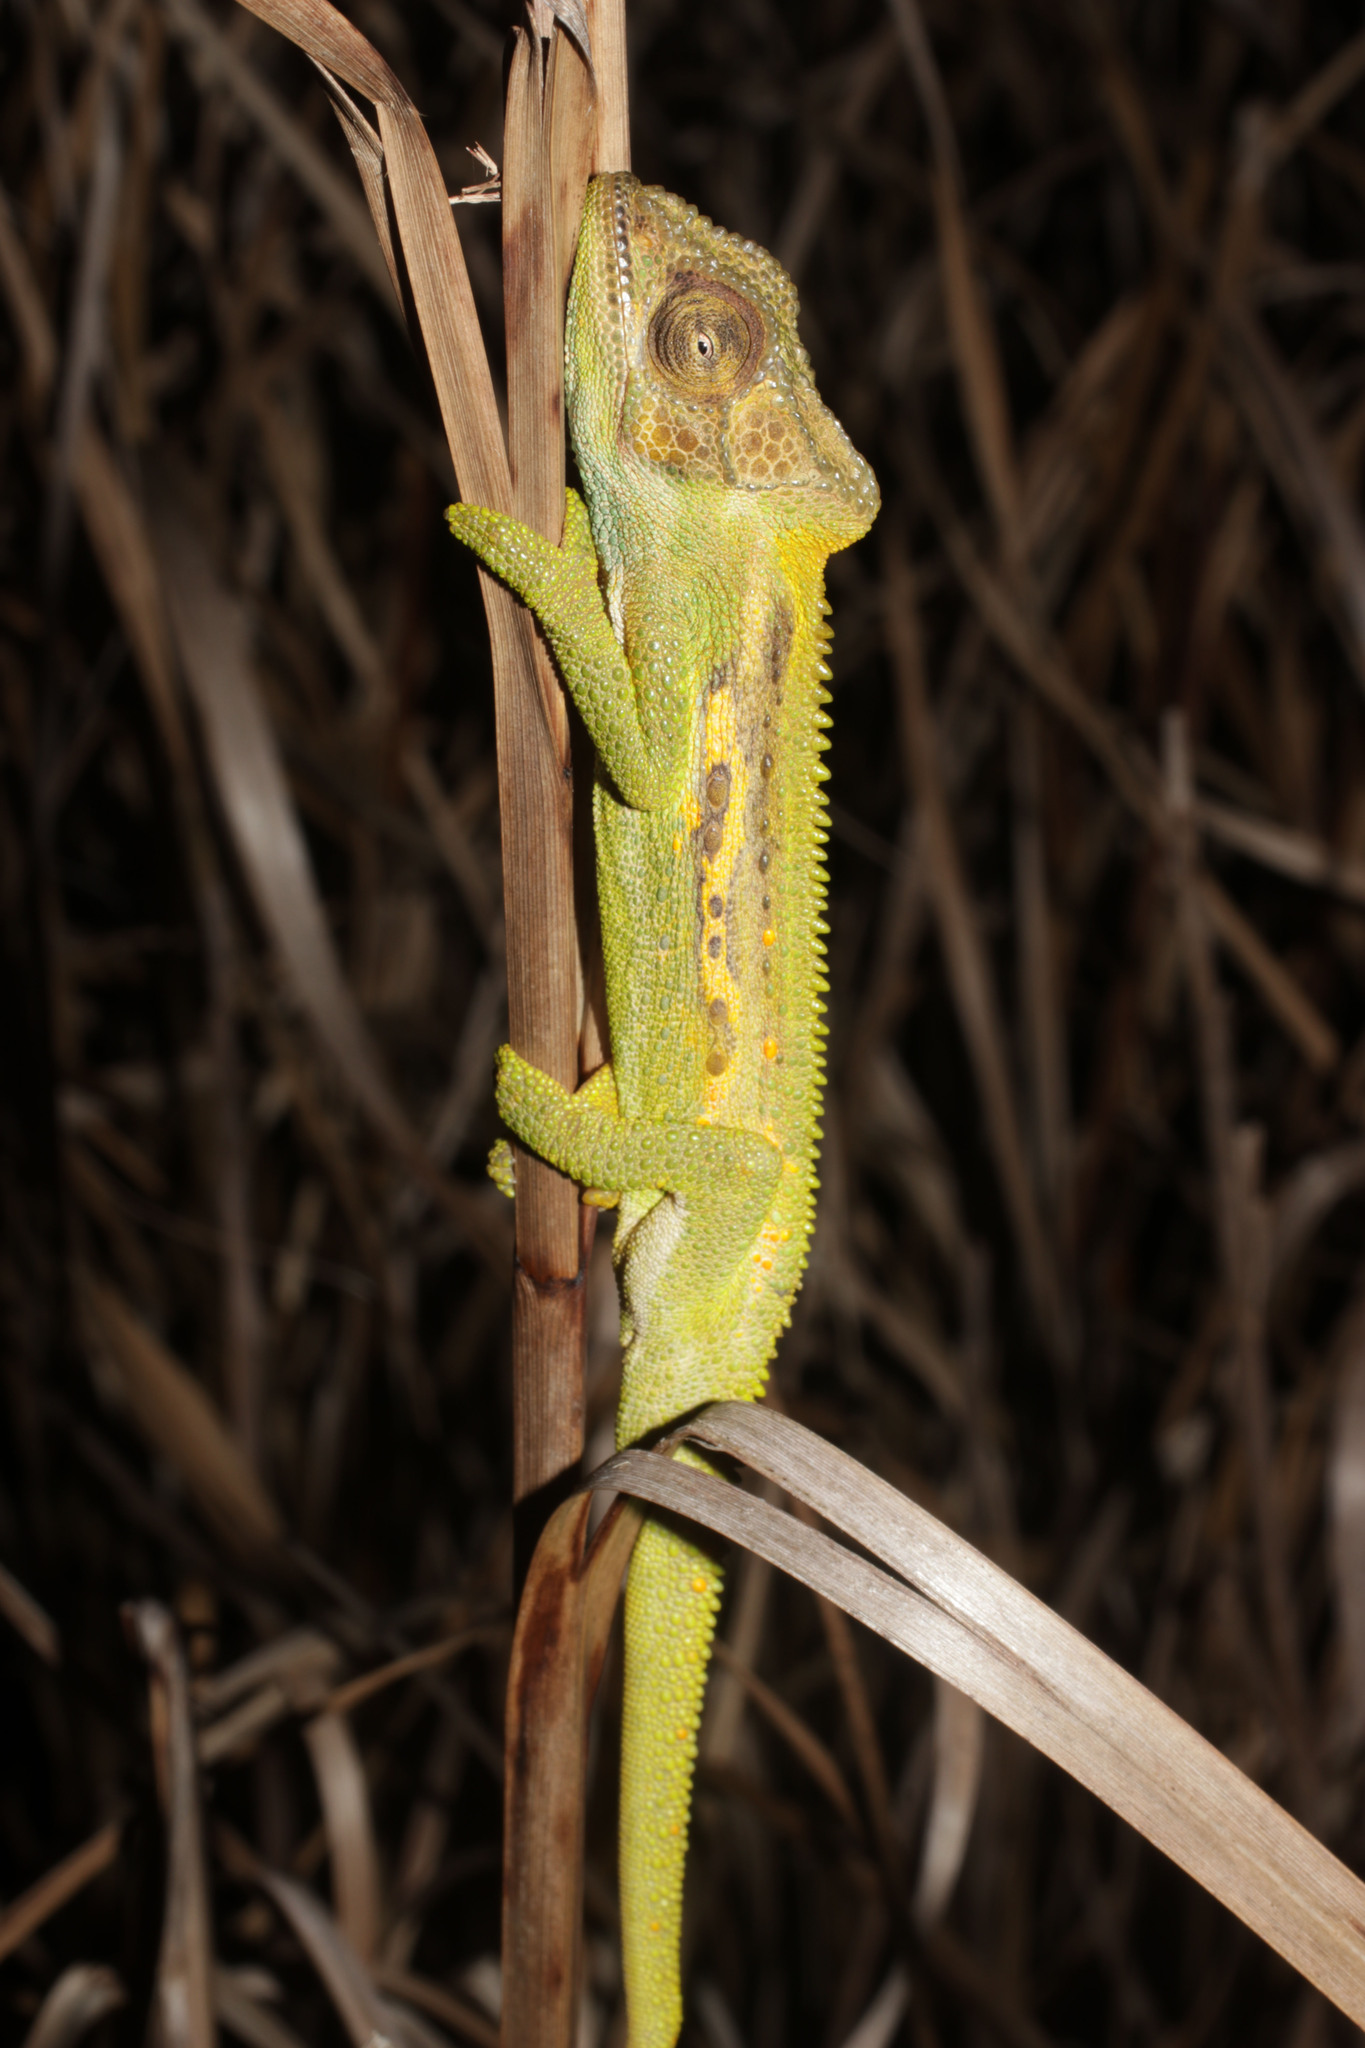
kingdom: Animalia
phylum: Chordata
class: Squamata
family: Chamaeleonidae
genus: Bradypodion
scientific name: Bradypodion pumilum
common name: Cape dwarf chameleon
